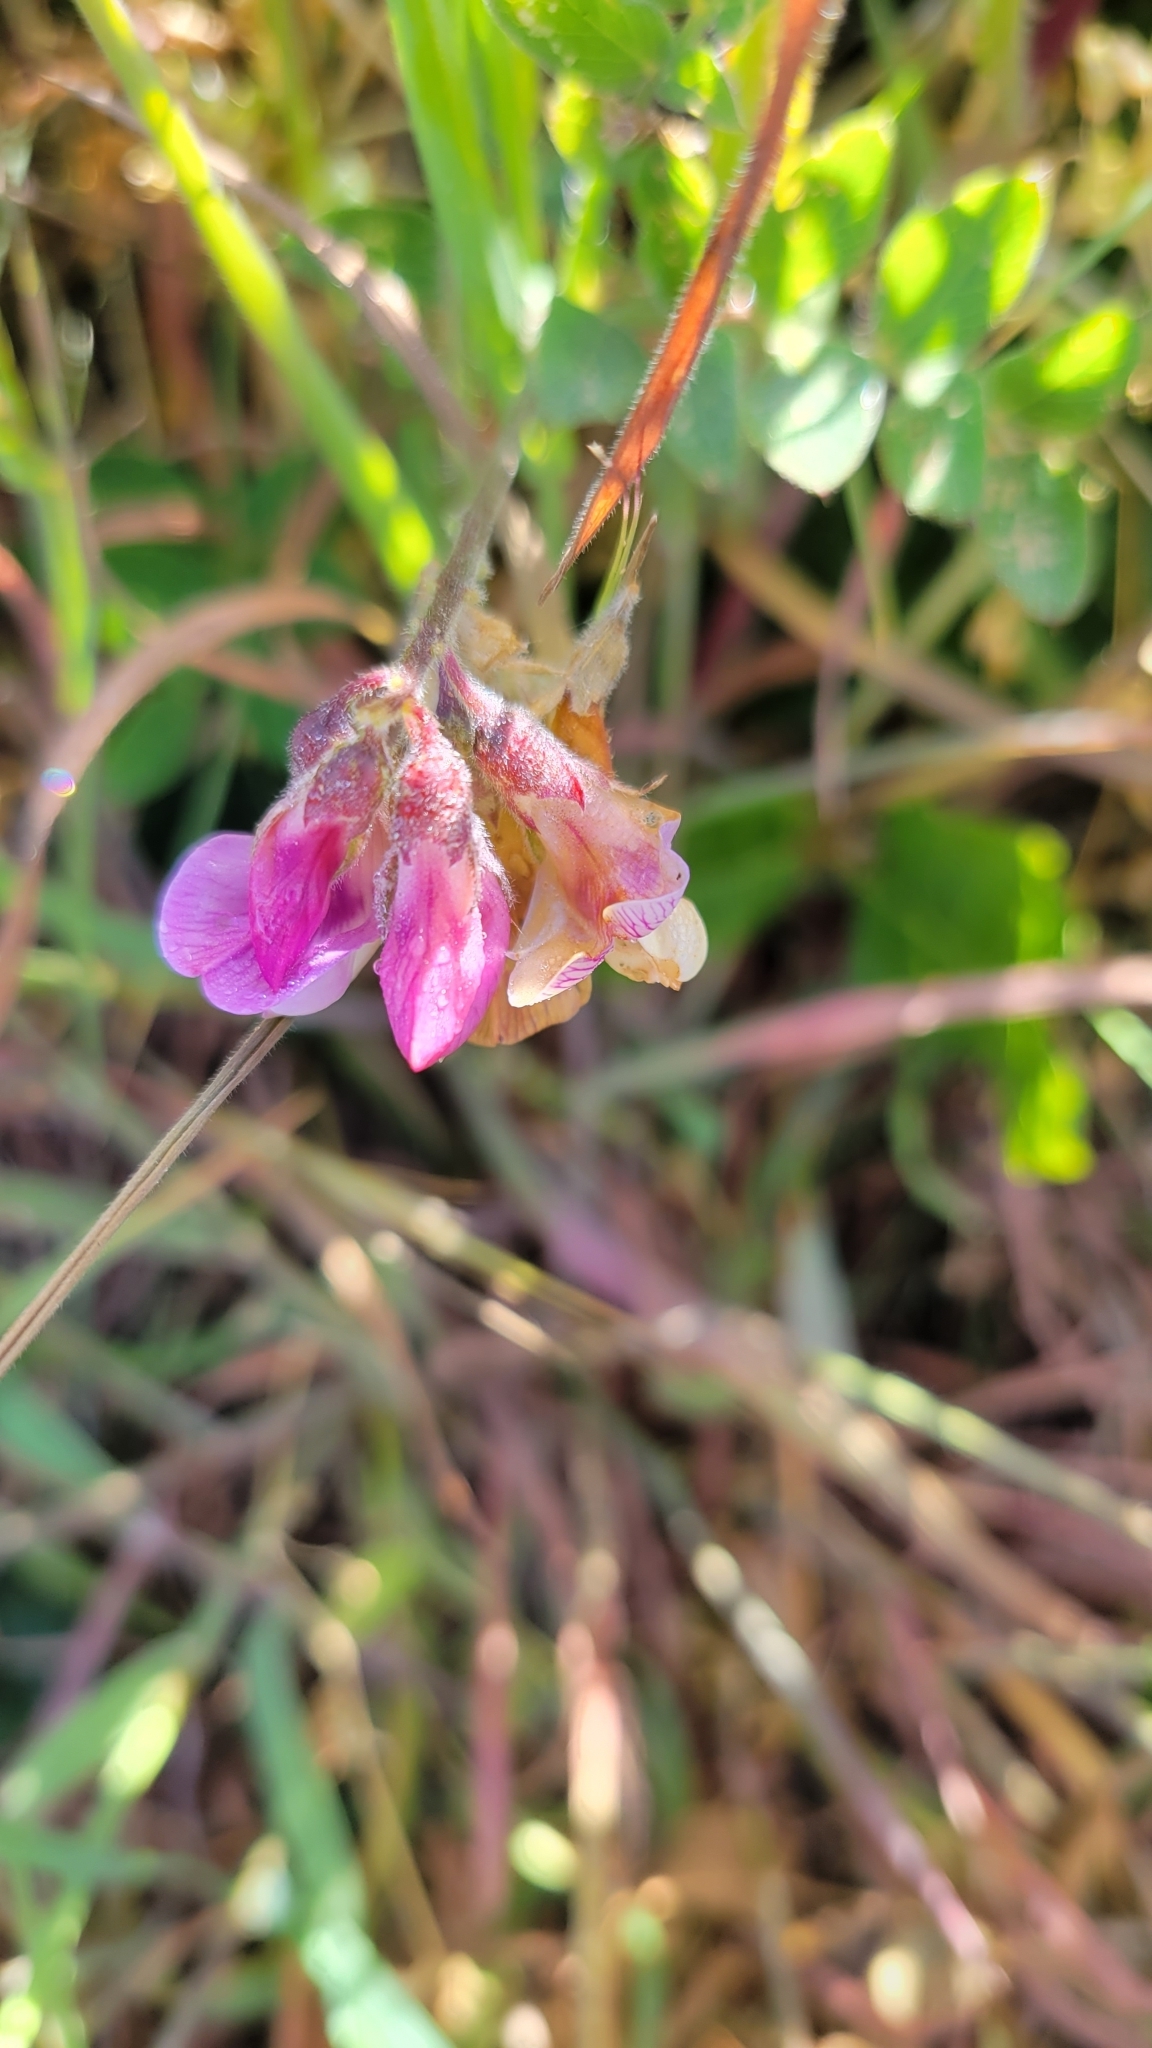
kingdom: Plantae
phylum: Tracheophyta
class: Magnoliopsida
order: Fabales
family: Fabaceae
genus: Lathyrus
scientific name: Lathyrus vestitus
